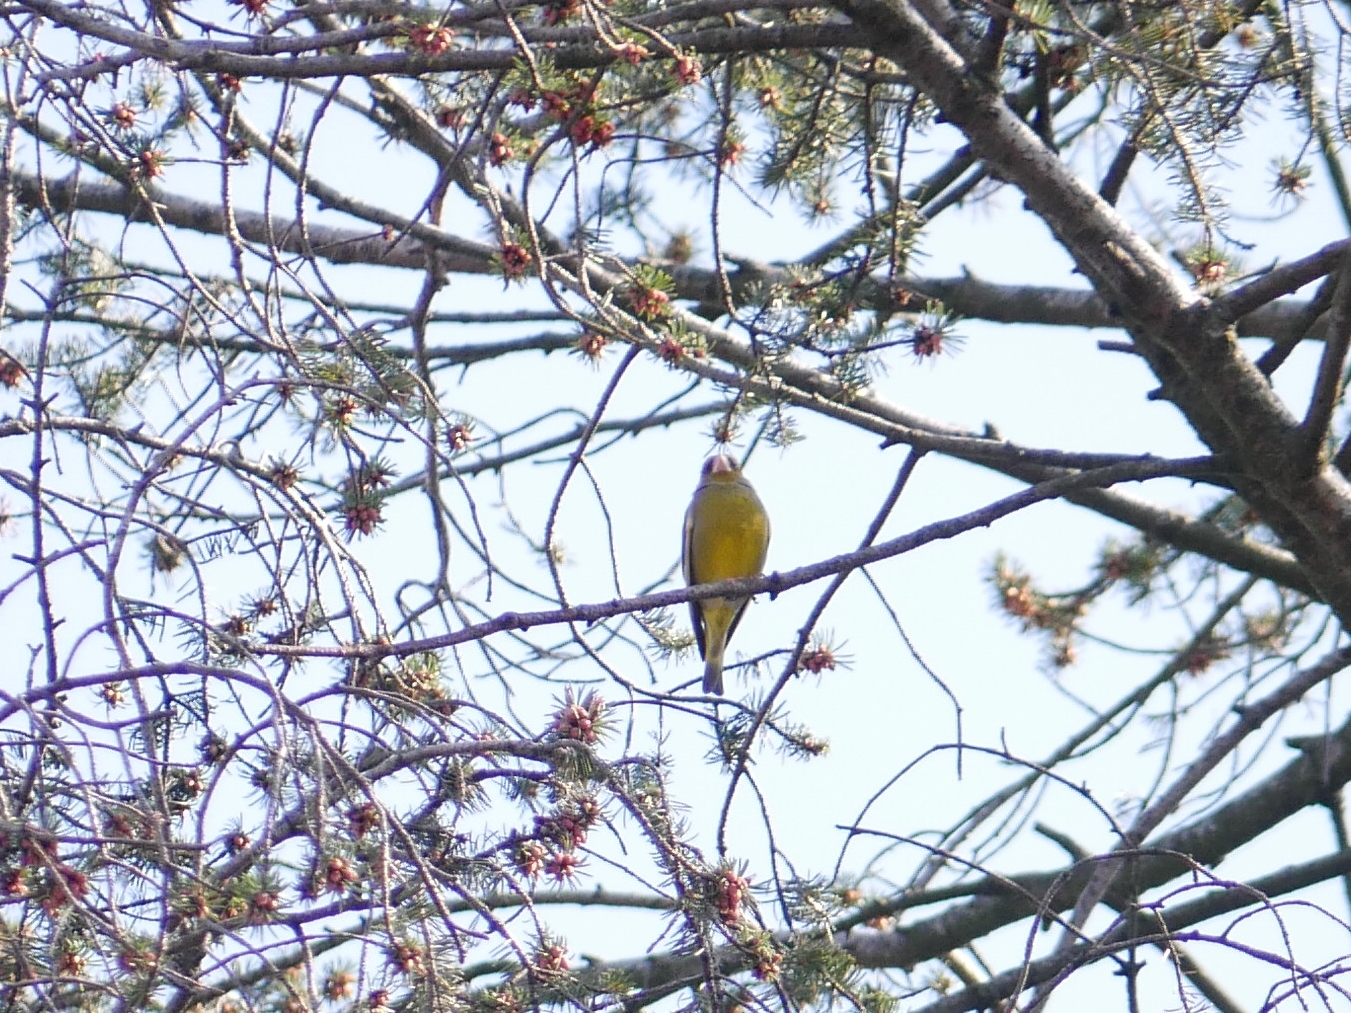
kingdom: Plantae
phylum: Tracheophyta
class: Liliopsida
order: Poales
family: Poaceae
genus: Chloris
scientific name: Chloris chloris
